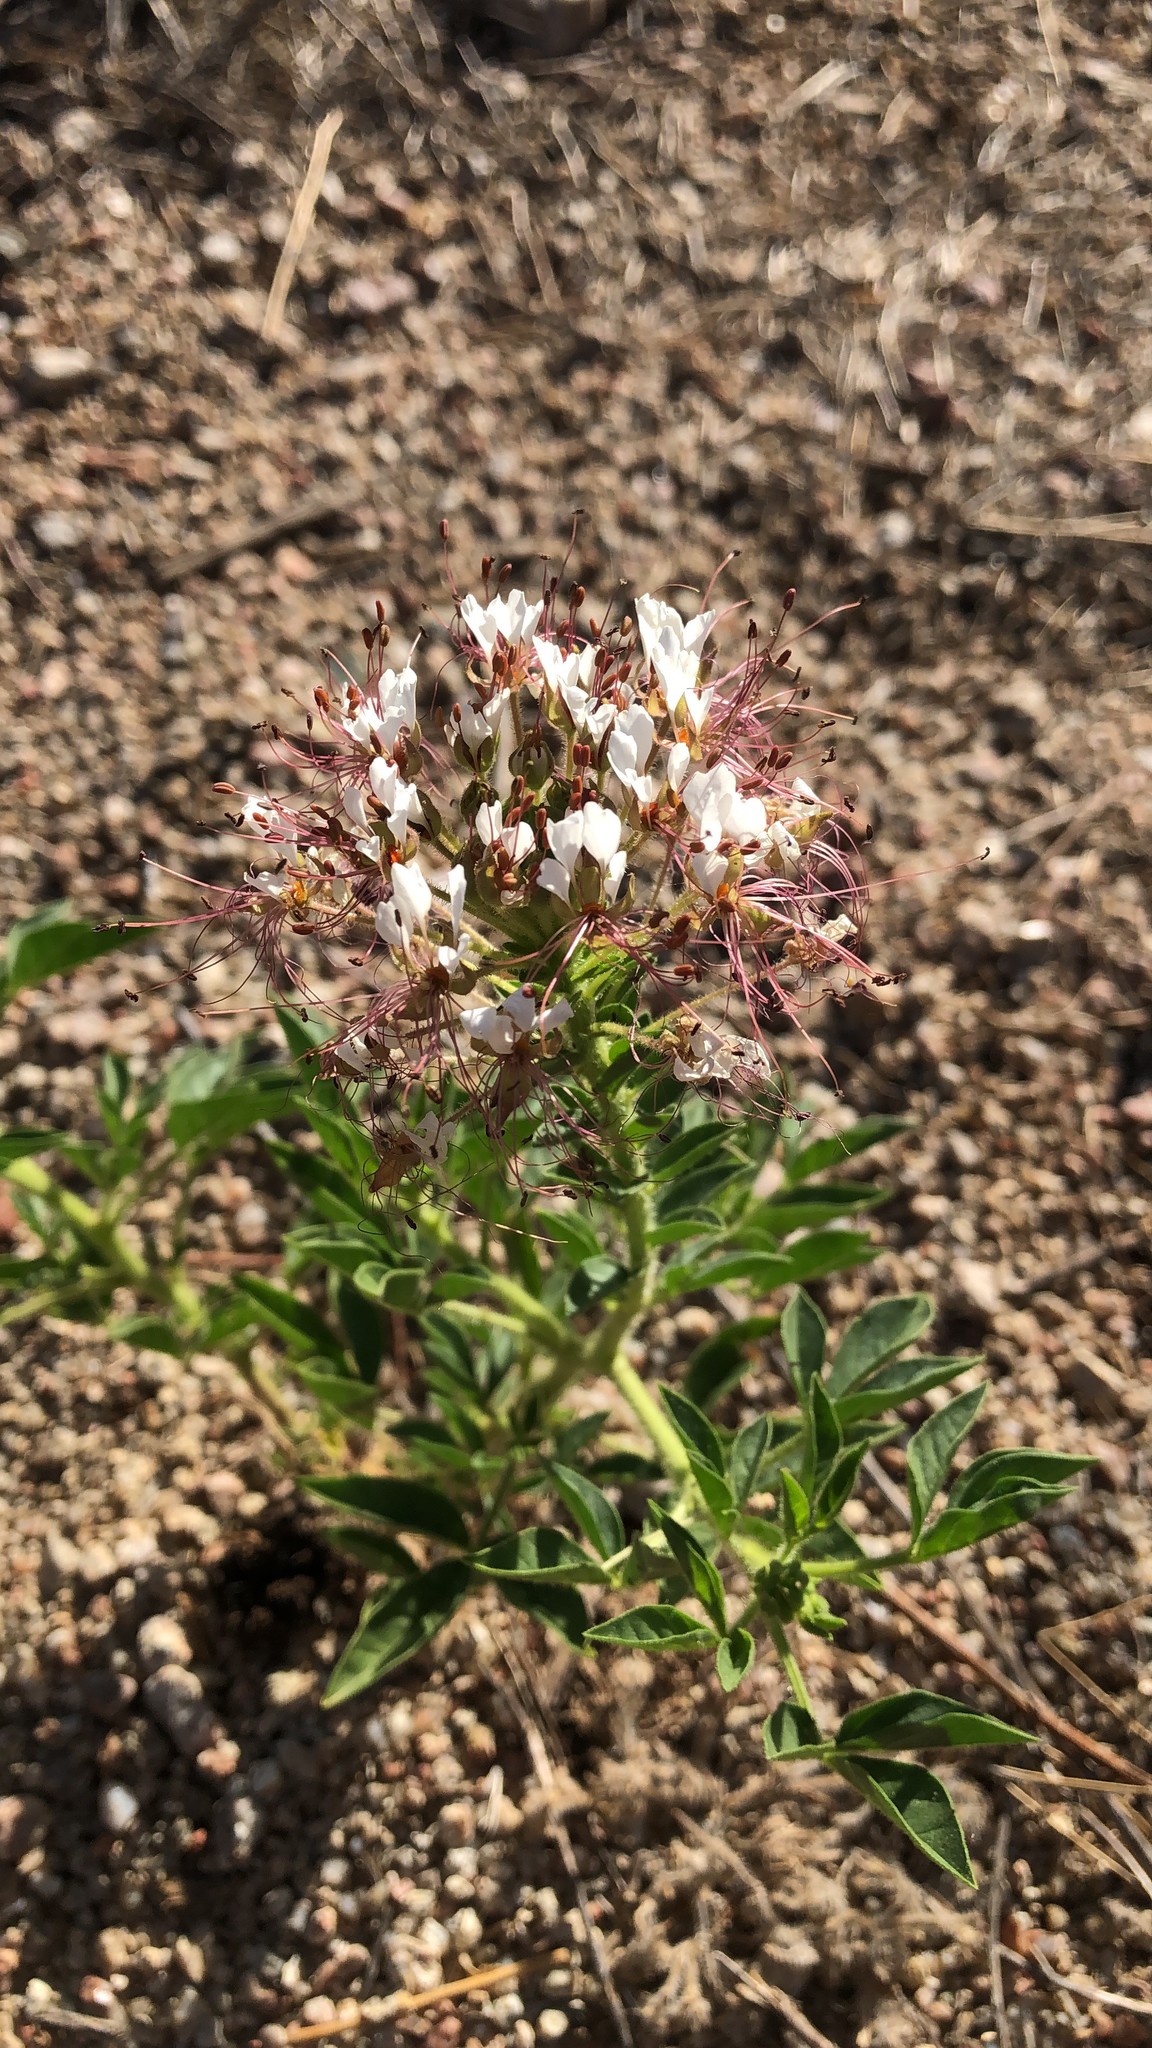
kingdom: Plantae
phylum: Tracheophyta
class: Magnoliopsida
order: Brassicales
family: Cleomaceae
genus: Polanisia
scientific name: Polanisia dodecandra
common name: Clammyweed
